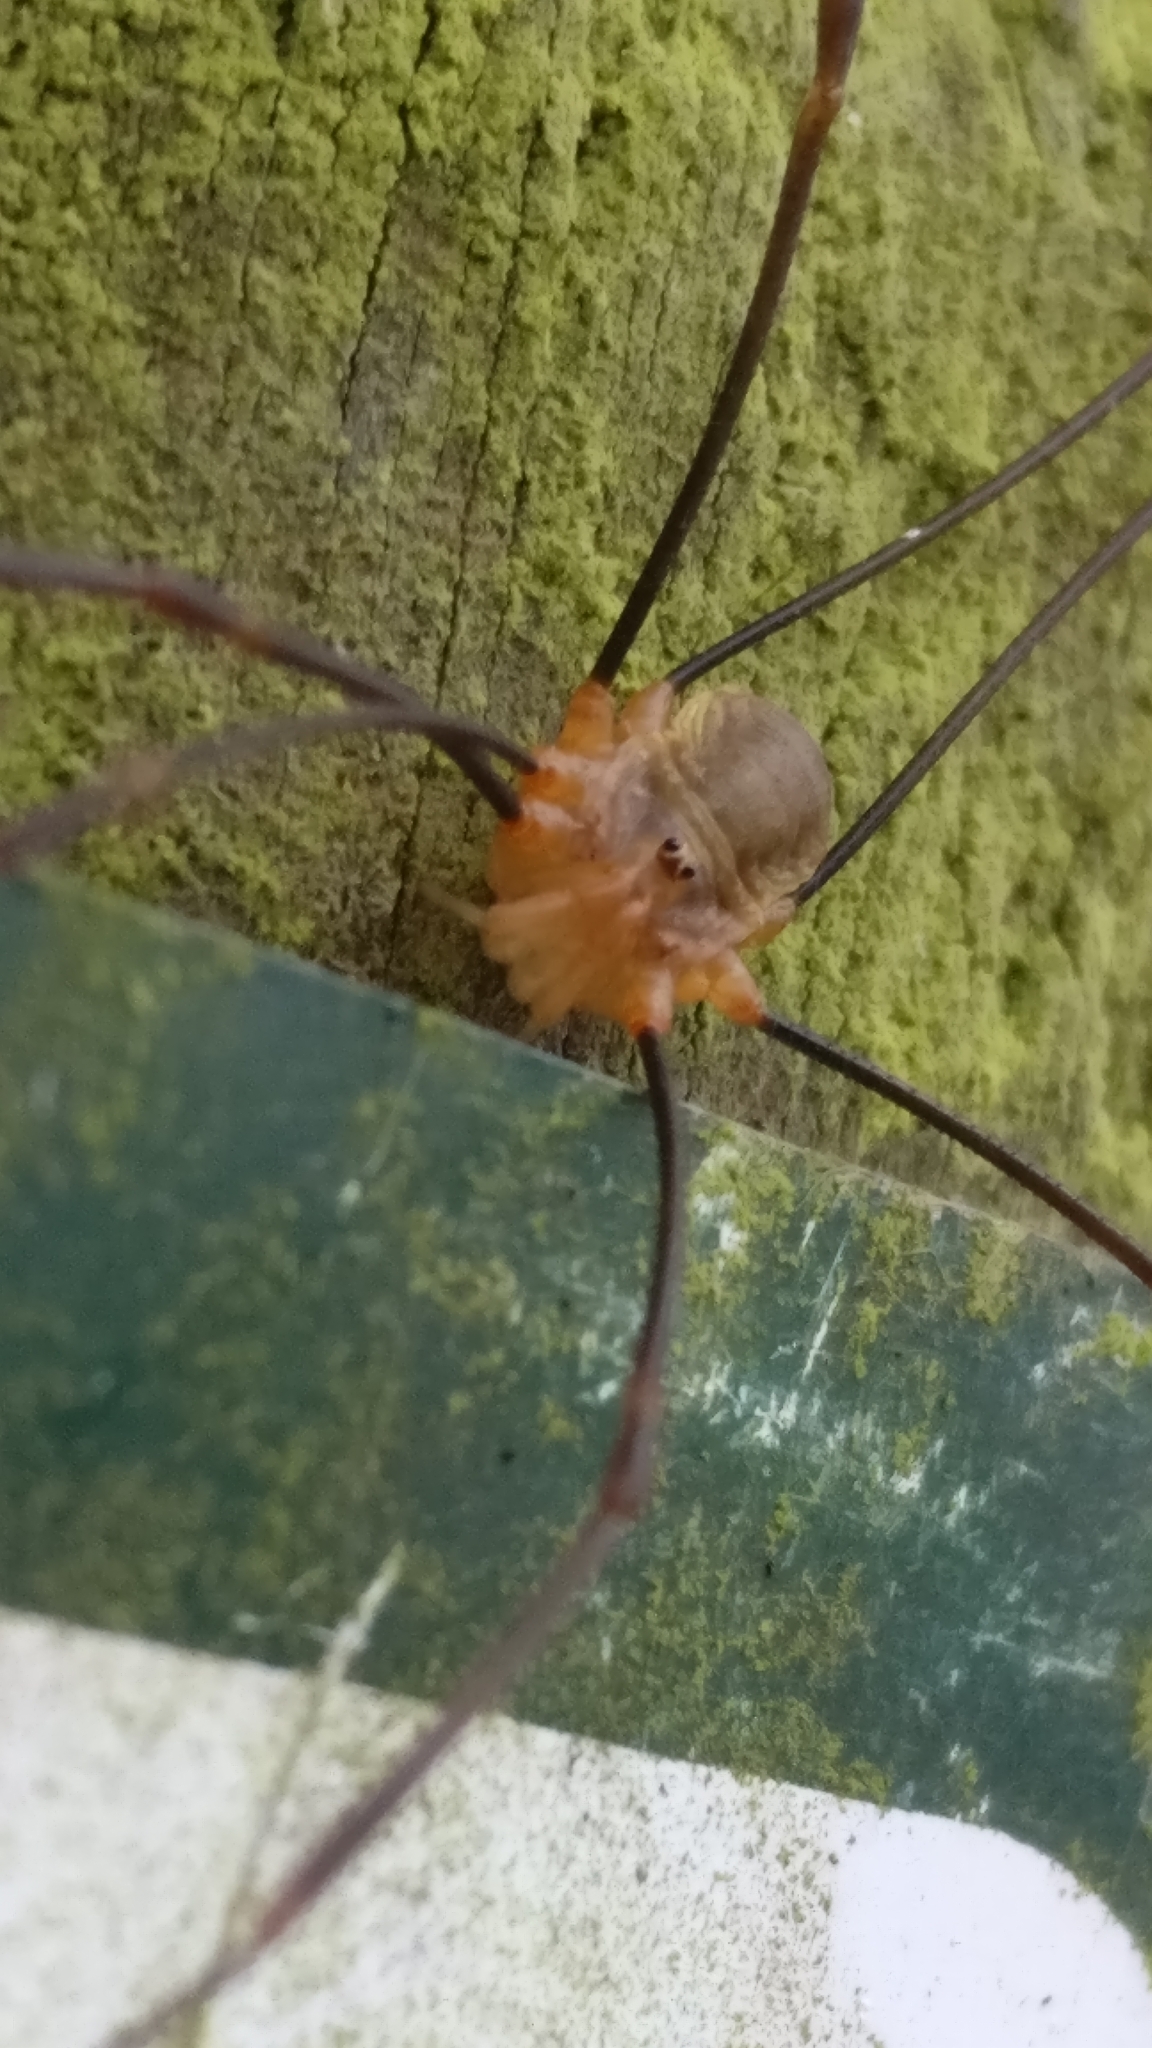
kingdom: Animalia
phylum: Arthropoda
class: Arachnida
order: Opiliones
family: Phalangiidae
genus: Opilio
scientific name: Opilio canestrinii
